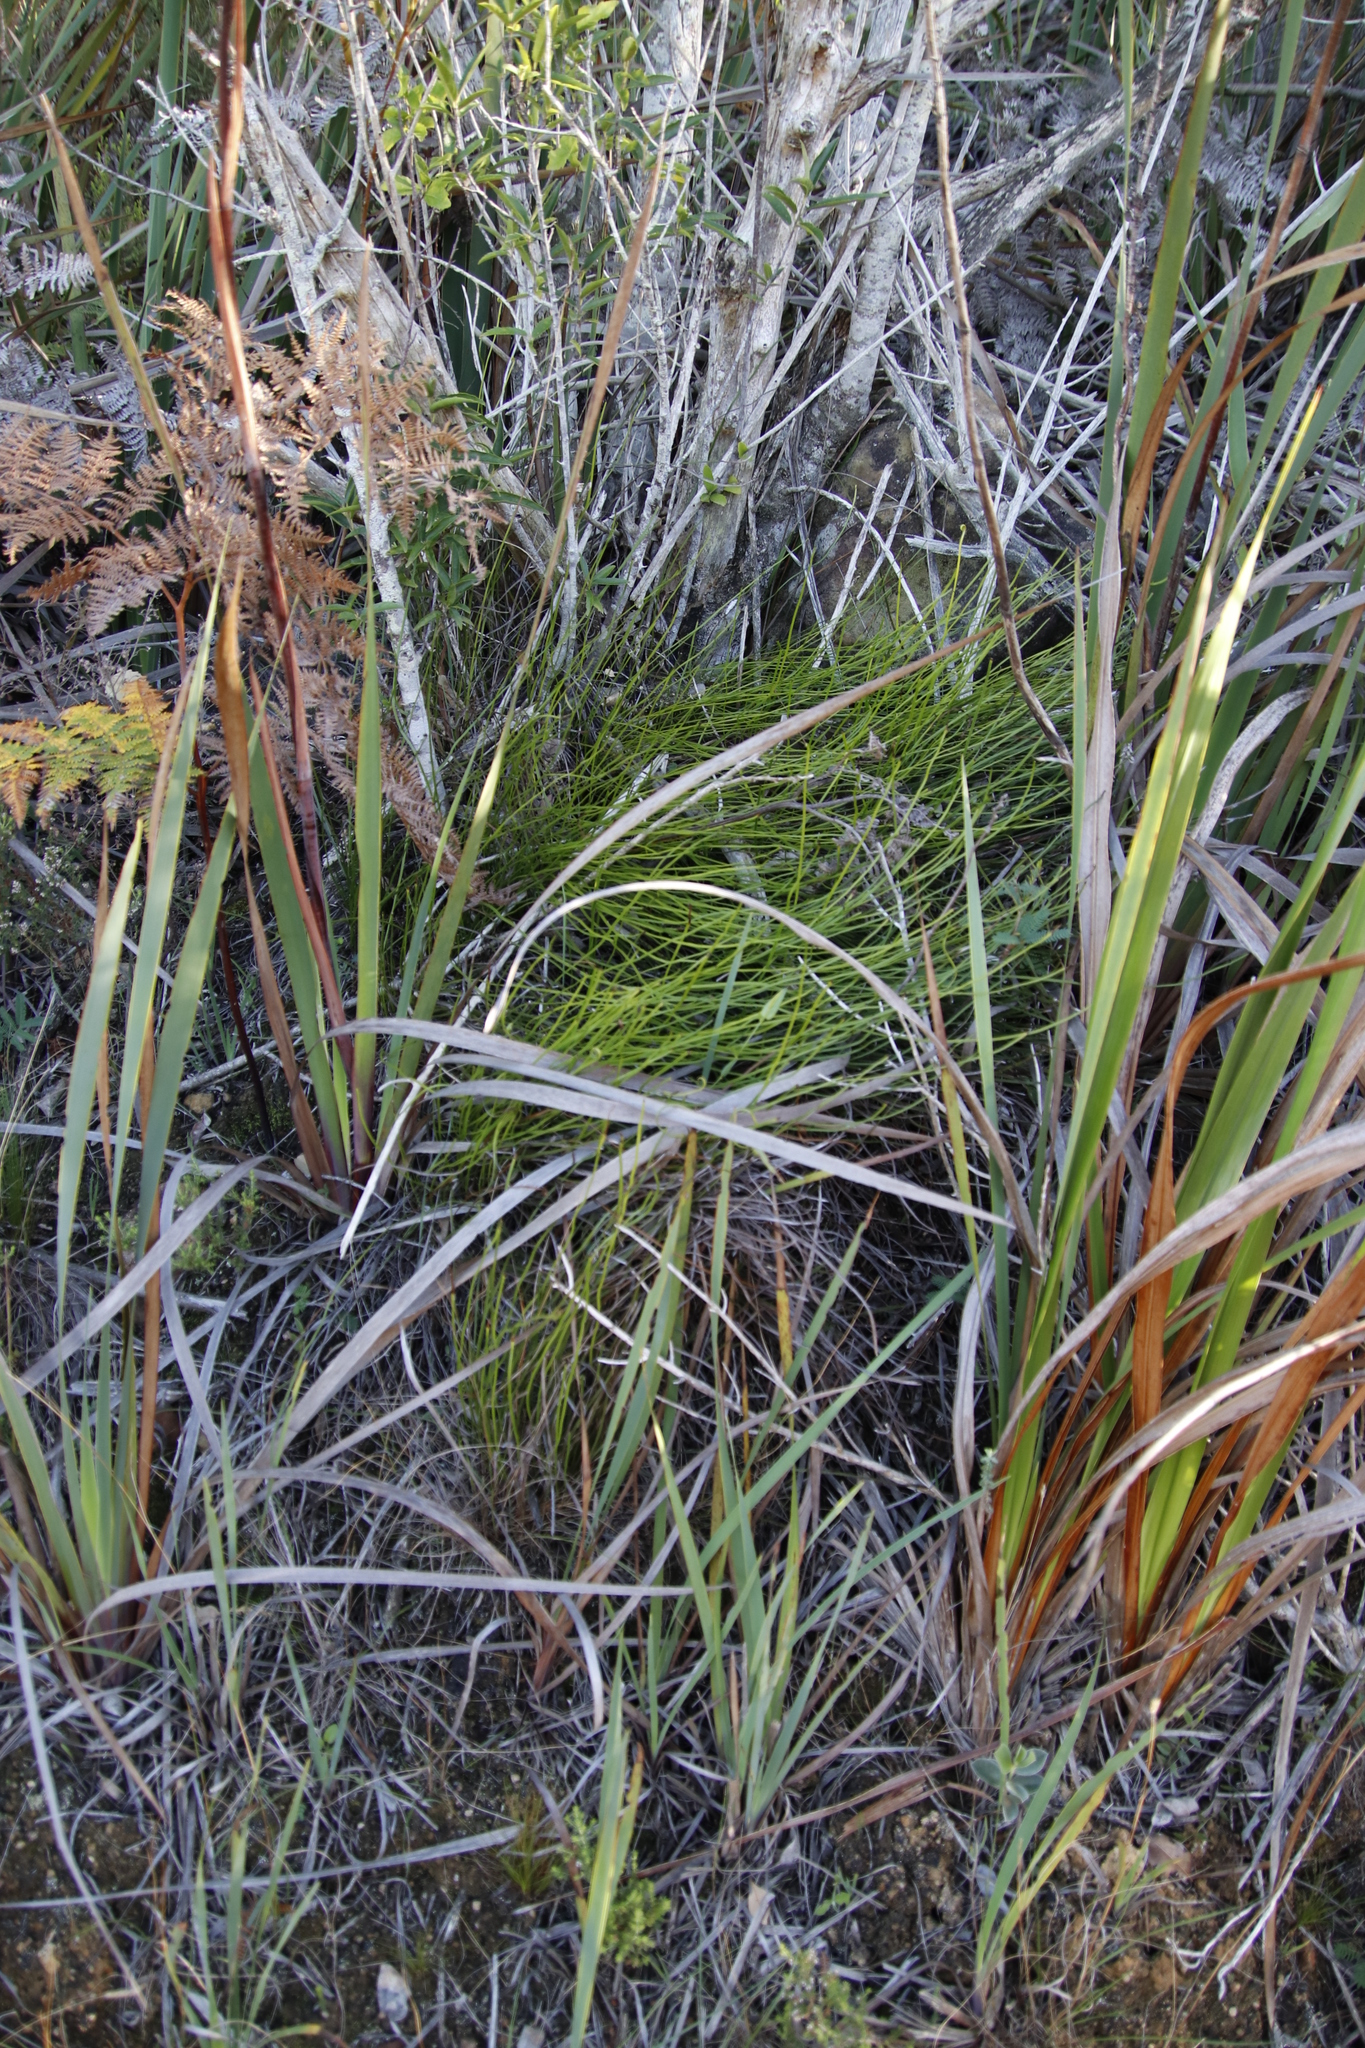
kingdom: Plantae
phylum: Tracheophyta
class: Polypodiopsida
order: Schizaeales
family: Schizaeaceae
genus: Schizaea
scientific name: Schizaea pectinata
